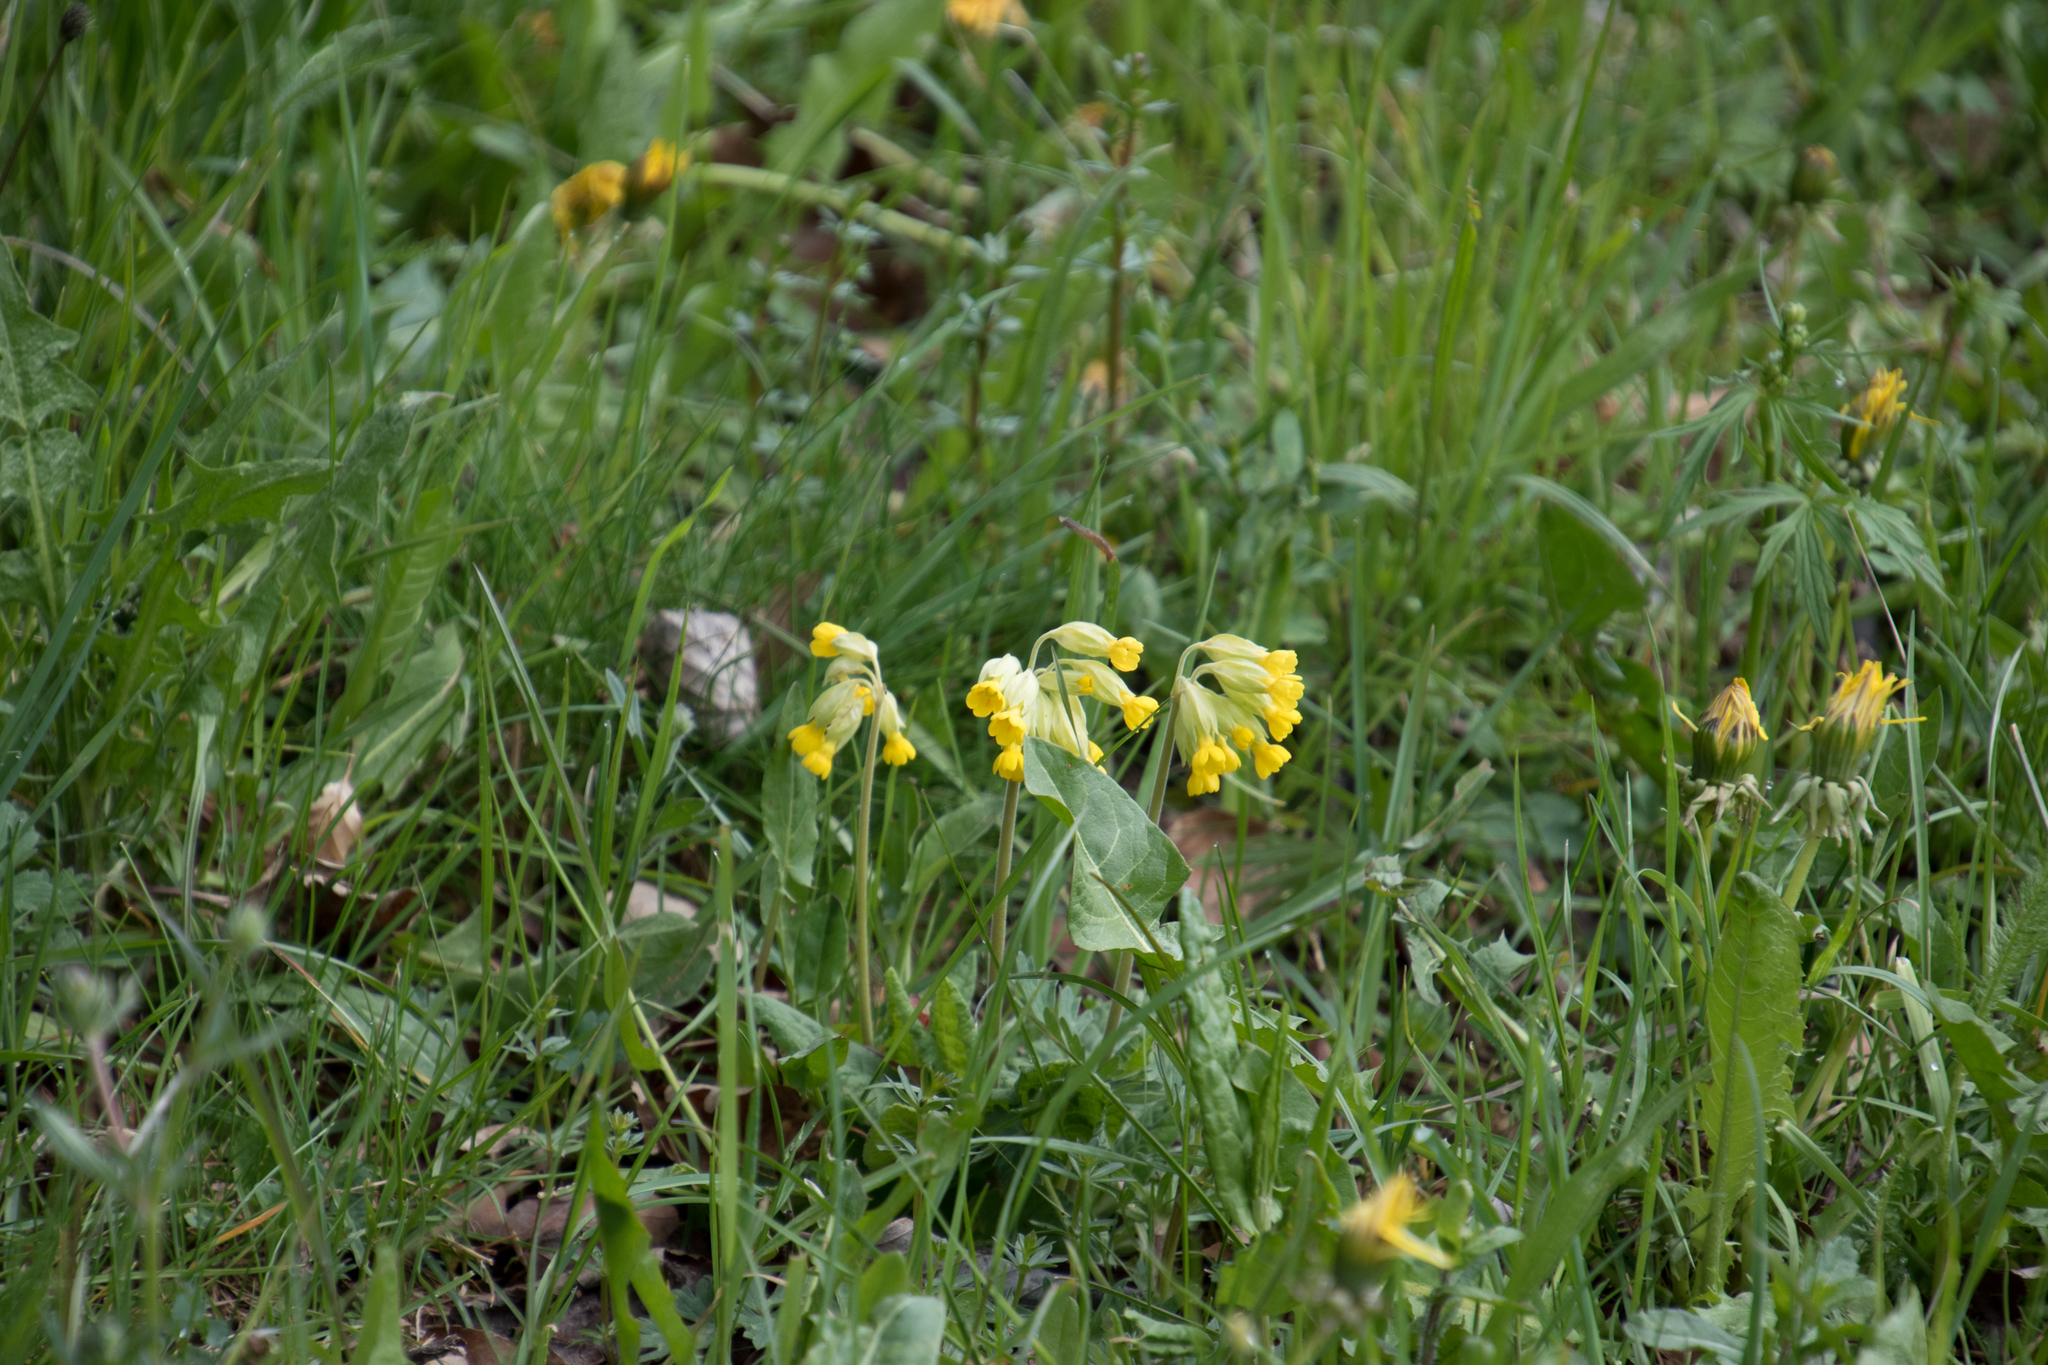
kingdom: Plantae
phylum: Tracheophyta
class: Magnoliopsida
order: Ericales
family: Primulaceae
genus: Primula
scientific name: Primula veris
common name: Cowslip
